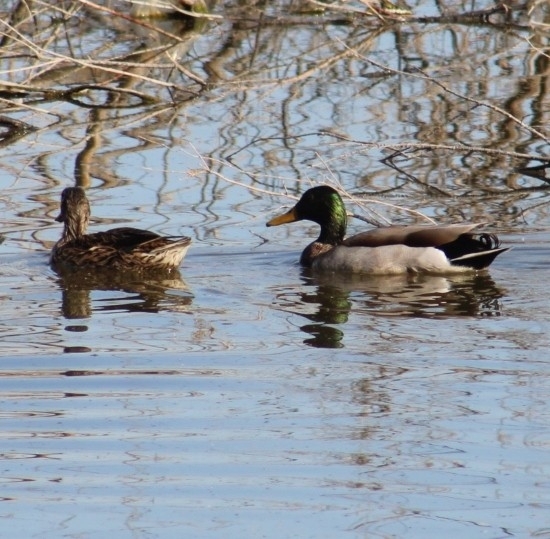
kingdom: Animalia
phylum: Chordata
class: Aves
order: Anseriformes
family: Anatidae
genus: Anas
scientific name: Anas platyrhynchos
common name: Mallard
